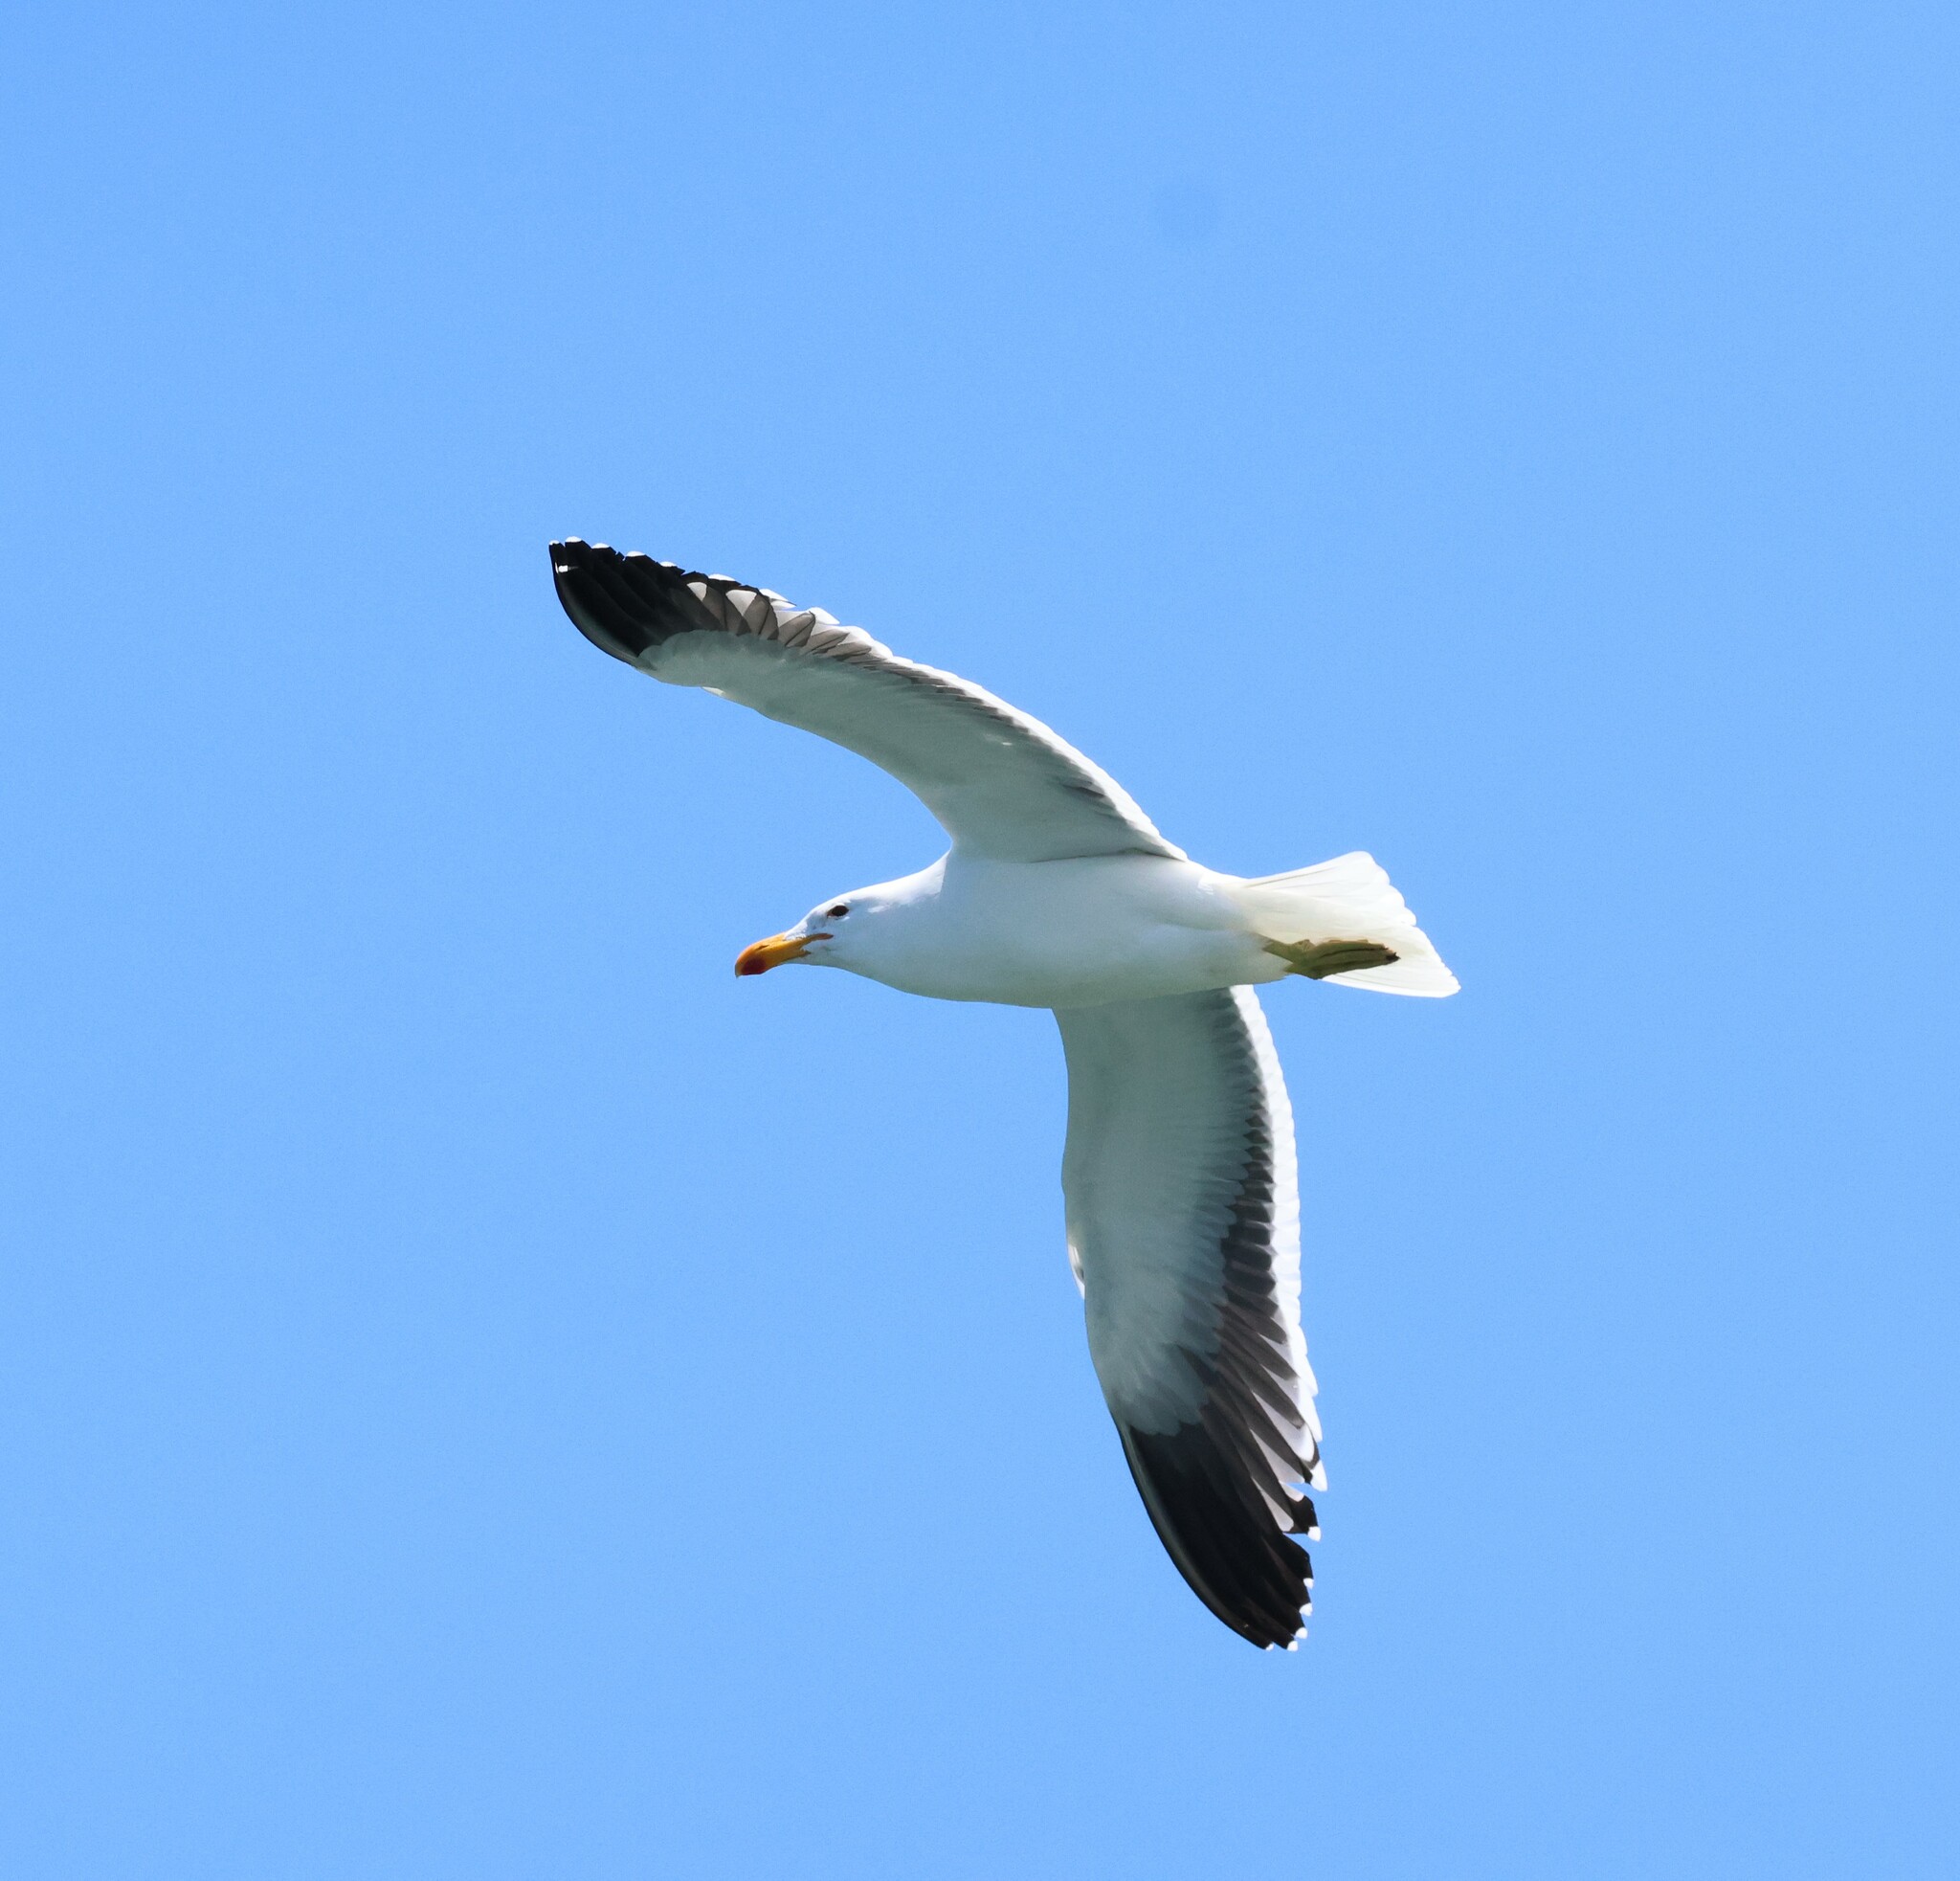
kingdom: Animalia
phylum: Chordata
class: Aves
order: Charadriiformes
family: Laridae
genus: Larus
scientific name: Larus dominicanus
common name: Kelp gull
